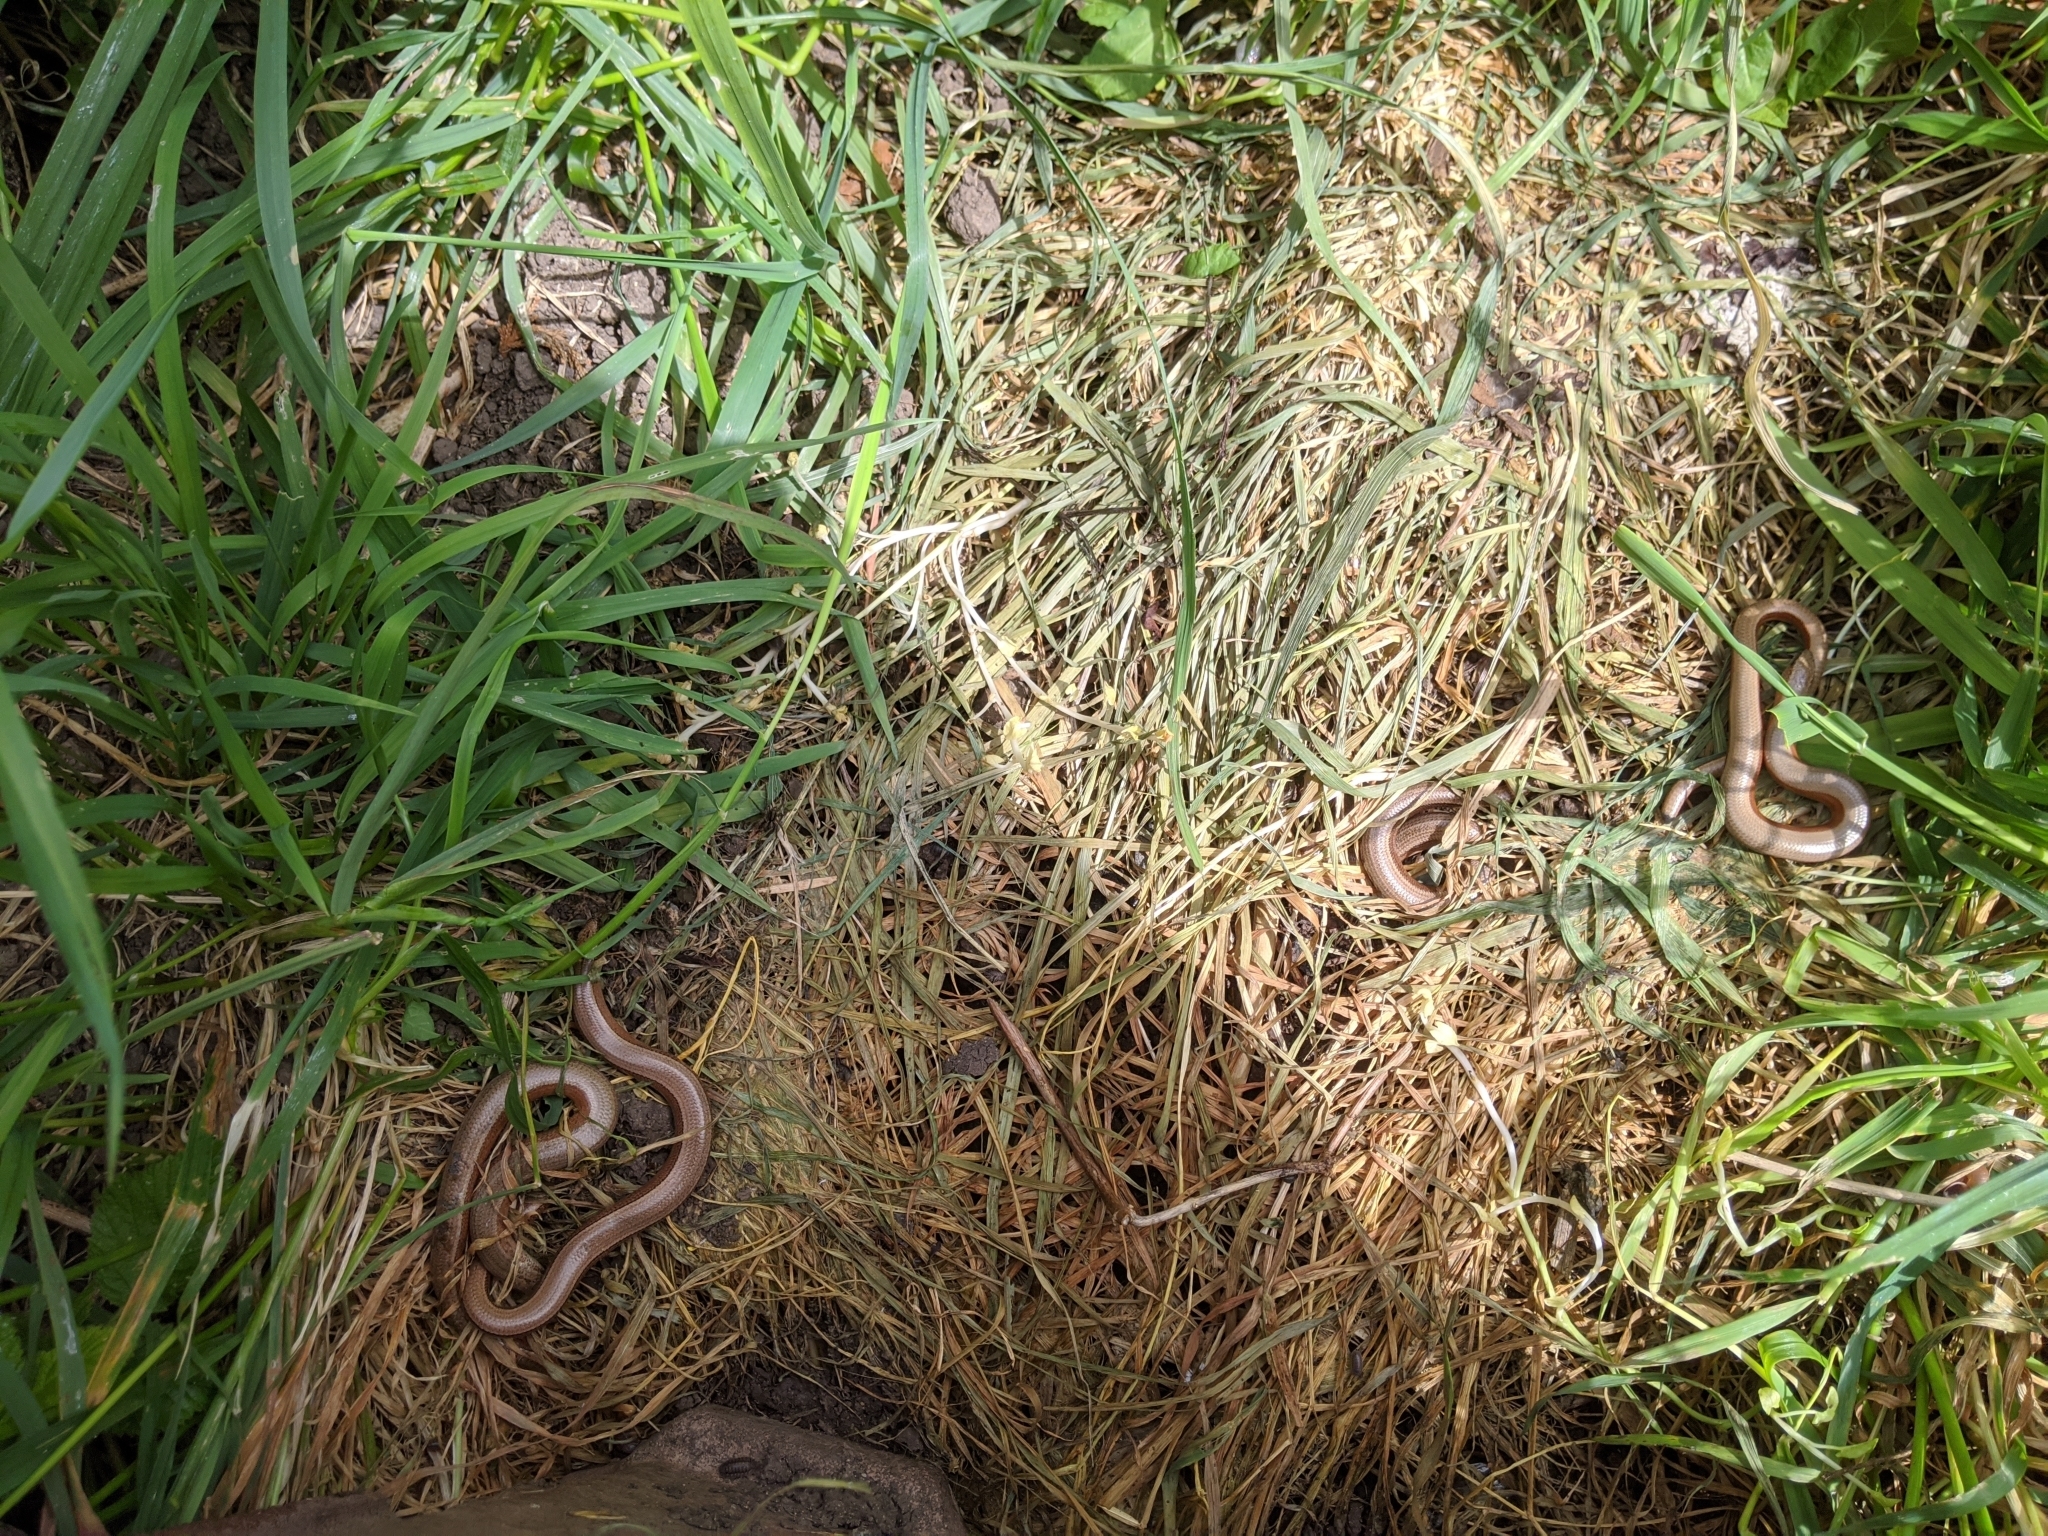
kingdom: Animalia
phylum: Chordata
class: Squamata
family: Anguidae
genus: Anguis
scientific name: Anguis fragilis
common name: Slow worm
